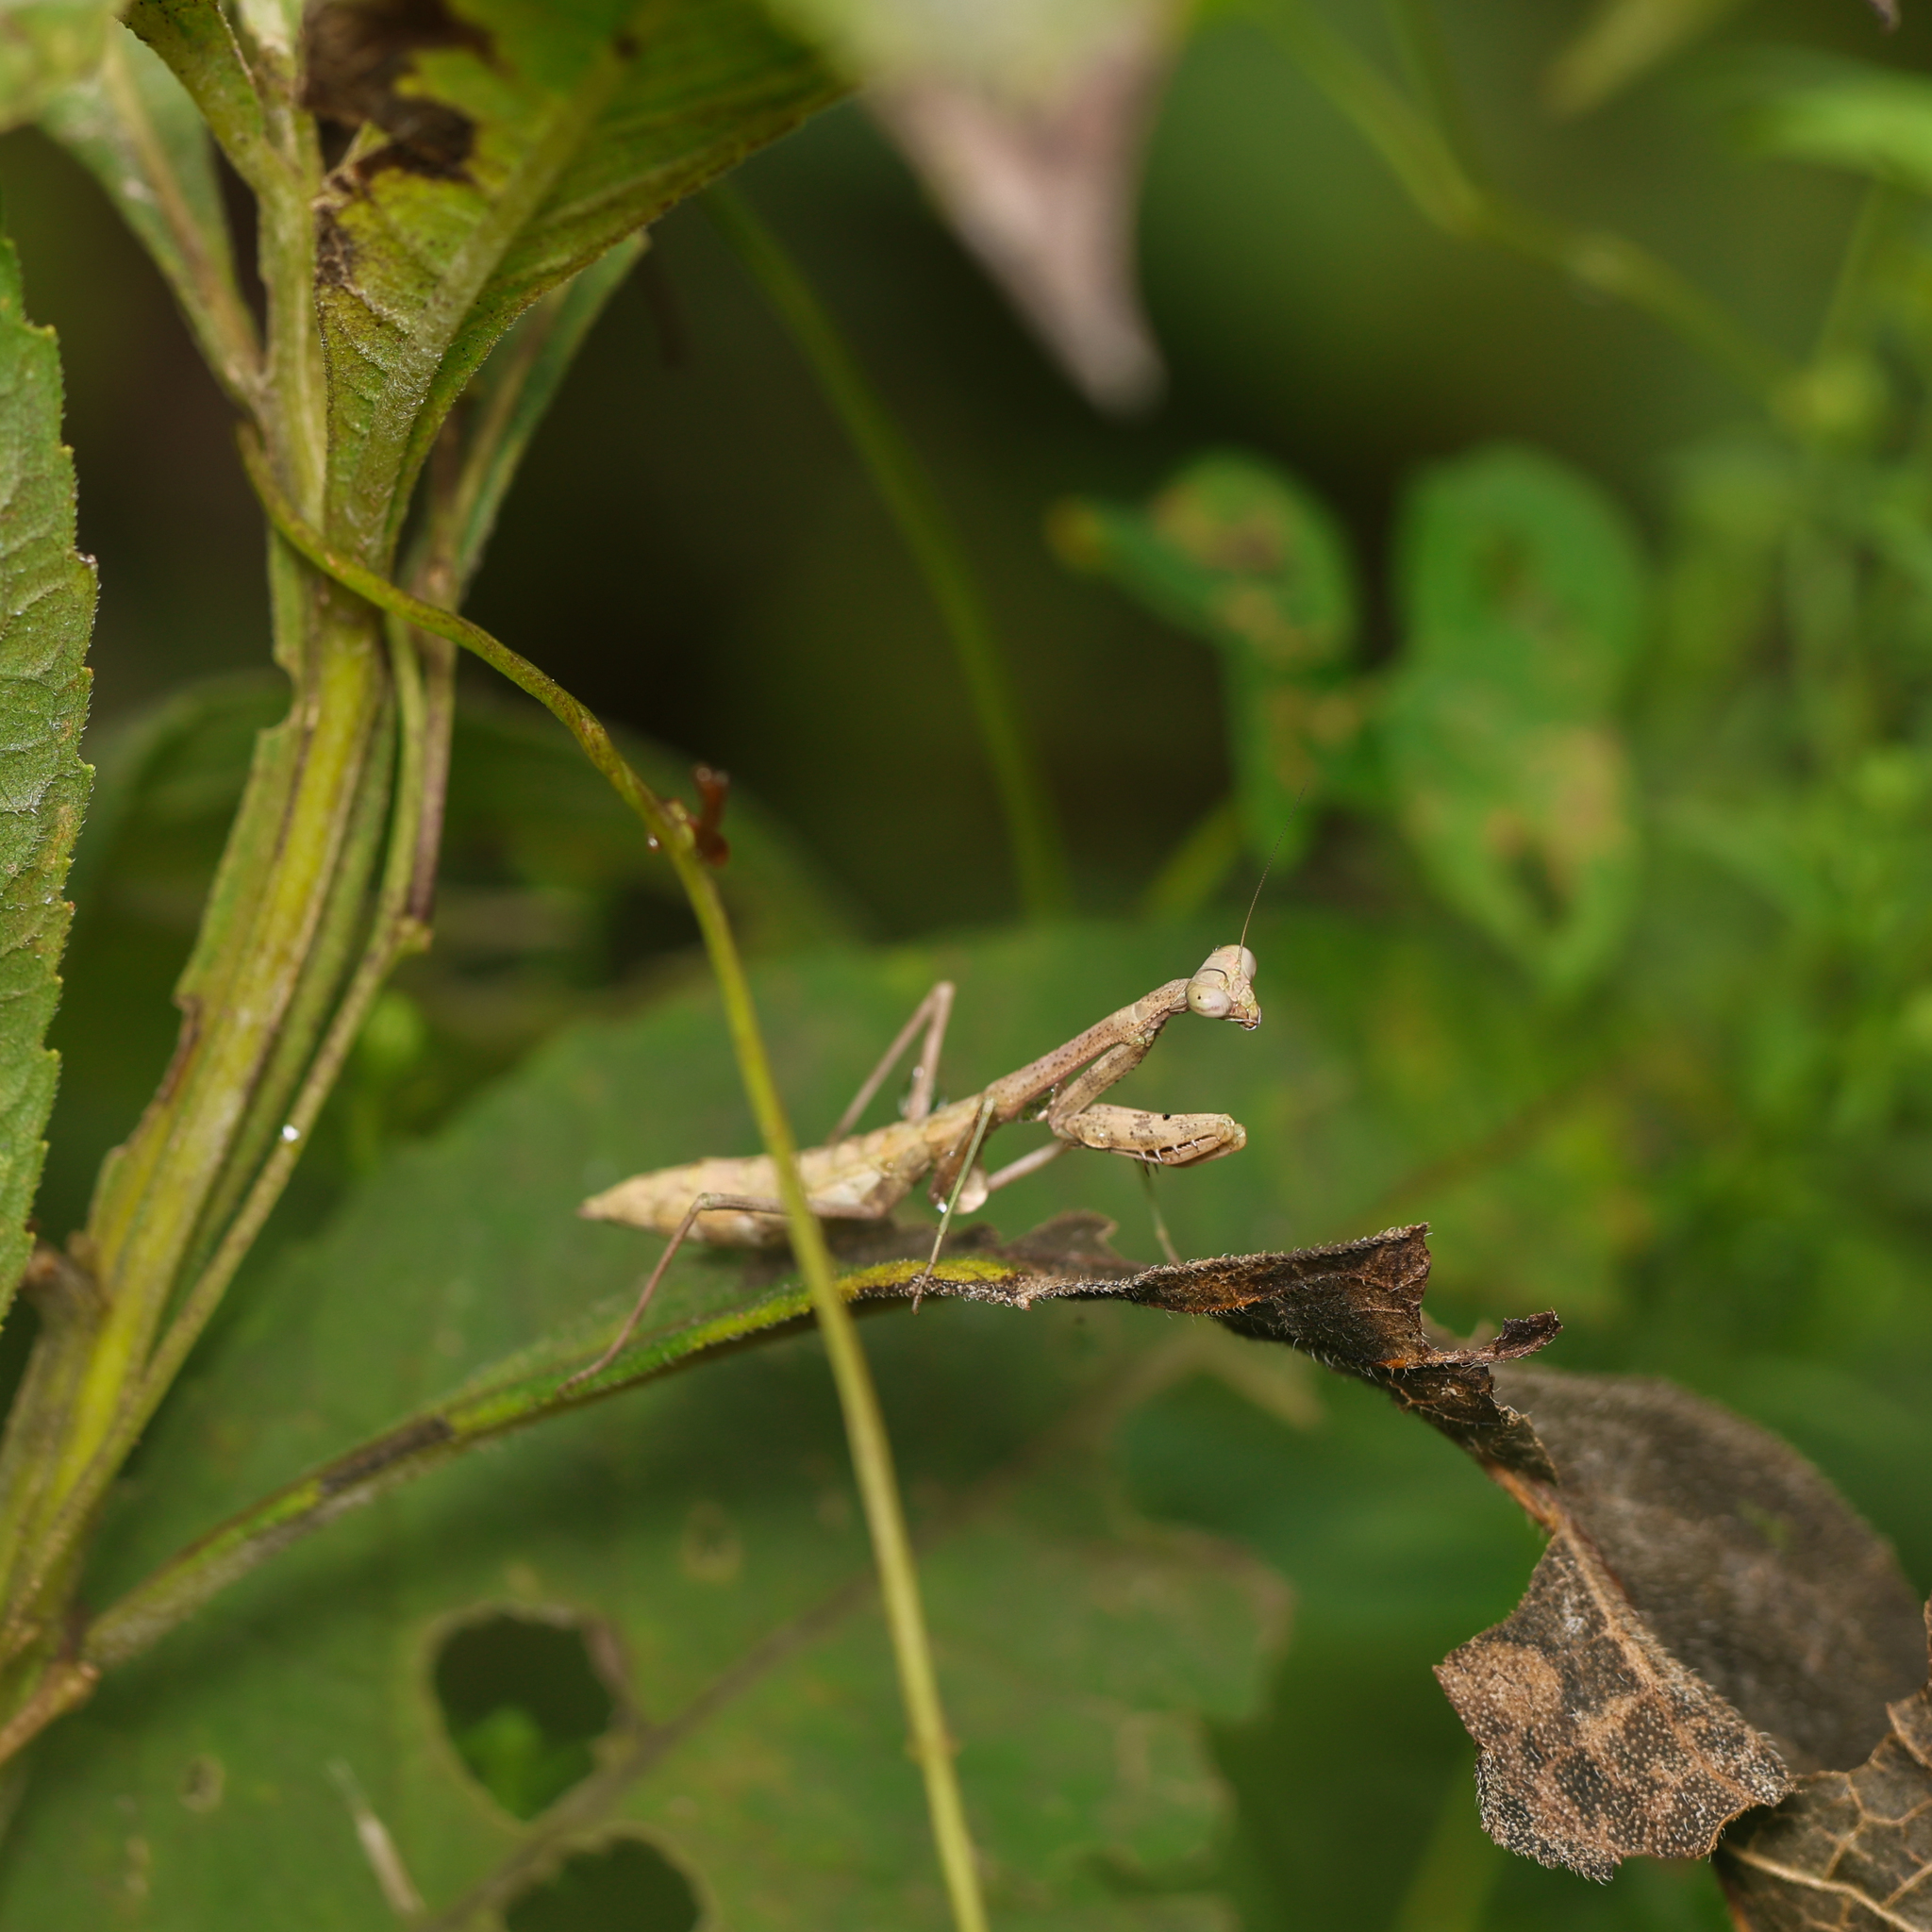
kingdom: Animalia
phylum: Arthropoda
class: Insecta
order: Mantodea
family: Mantidae
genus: Stagmomantis
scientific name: Stagmomantis carolina
